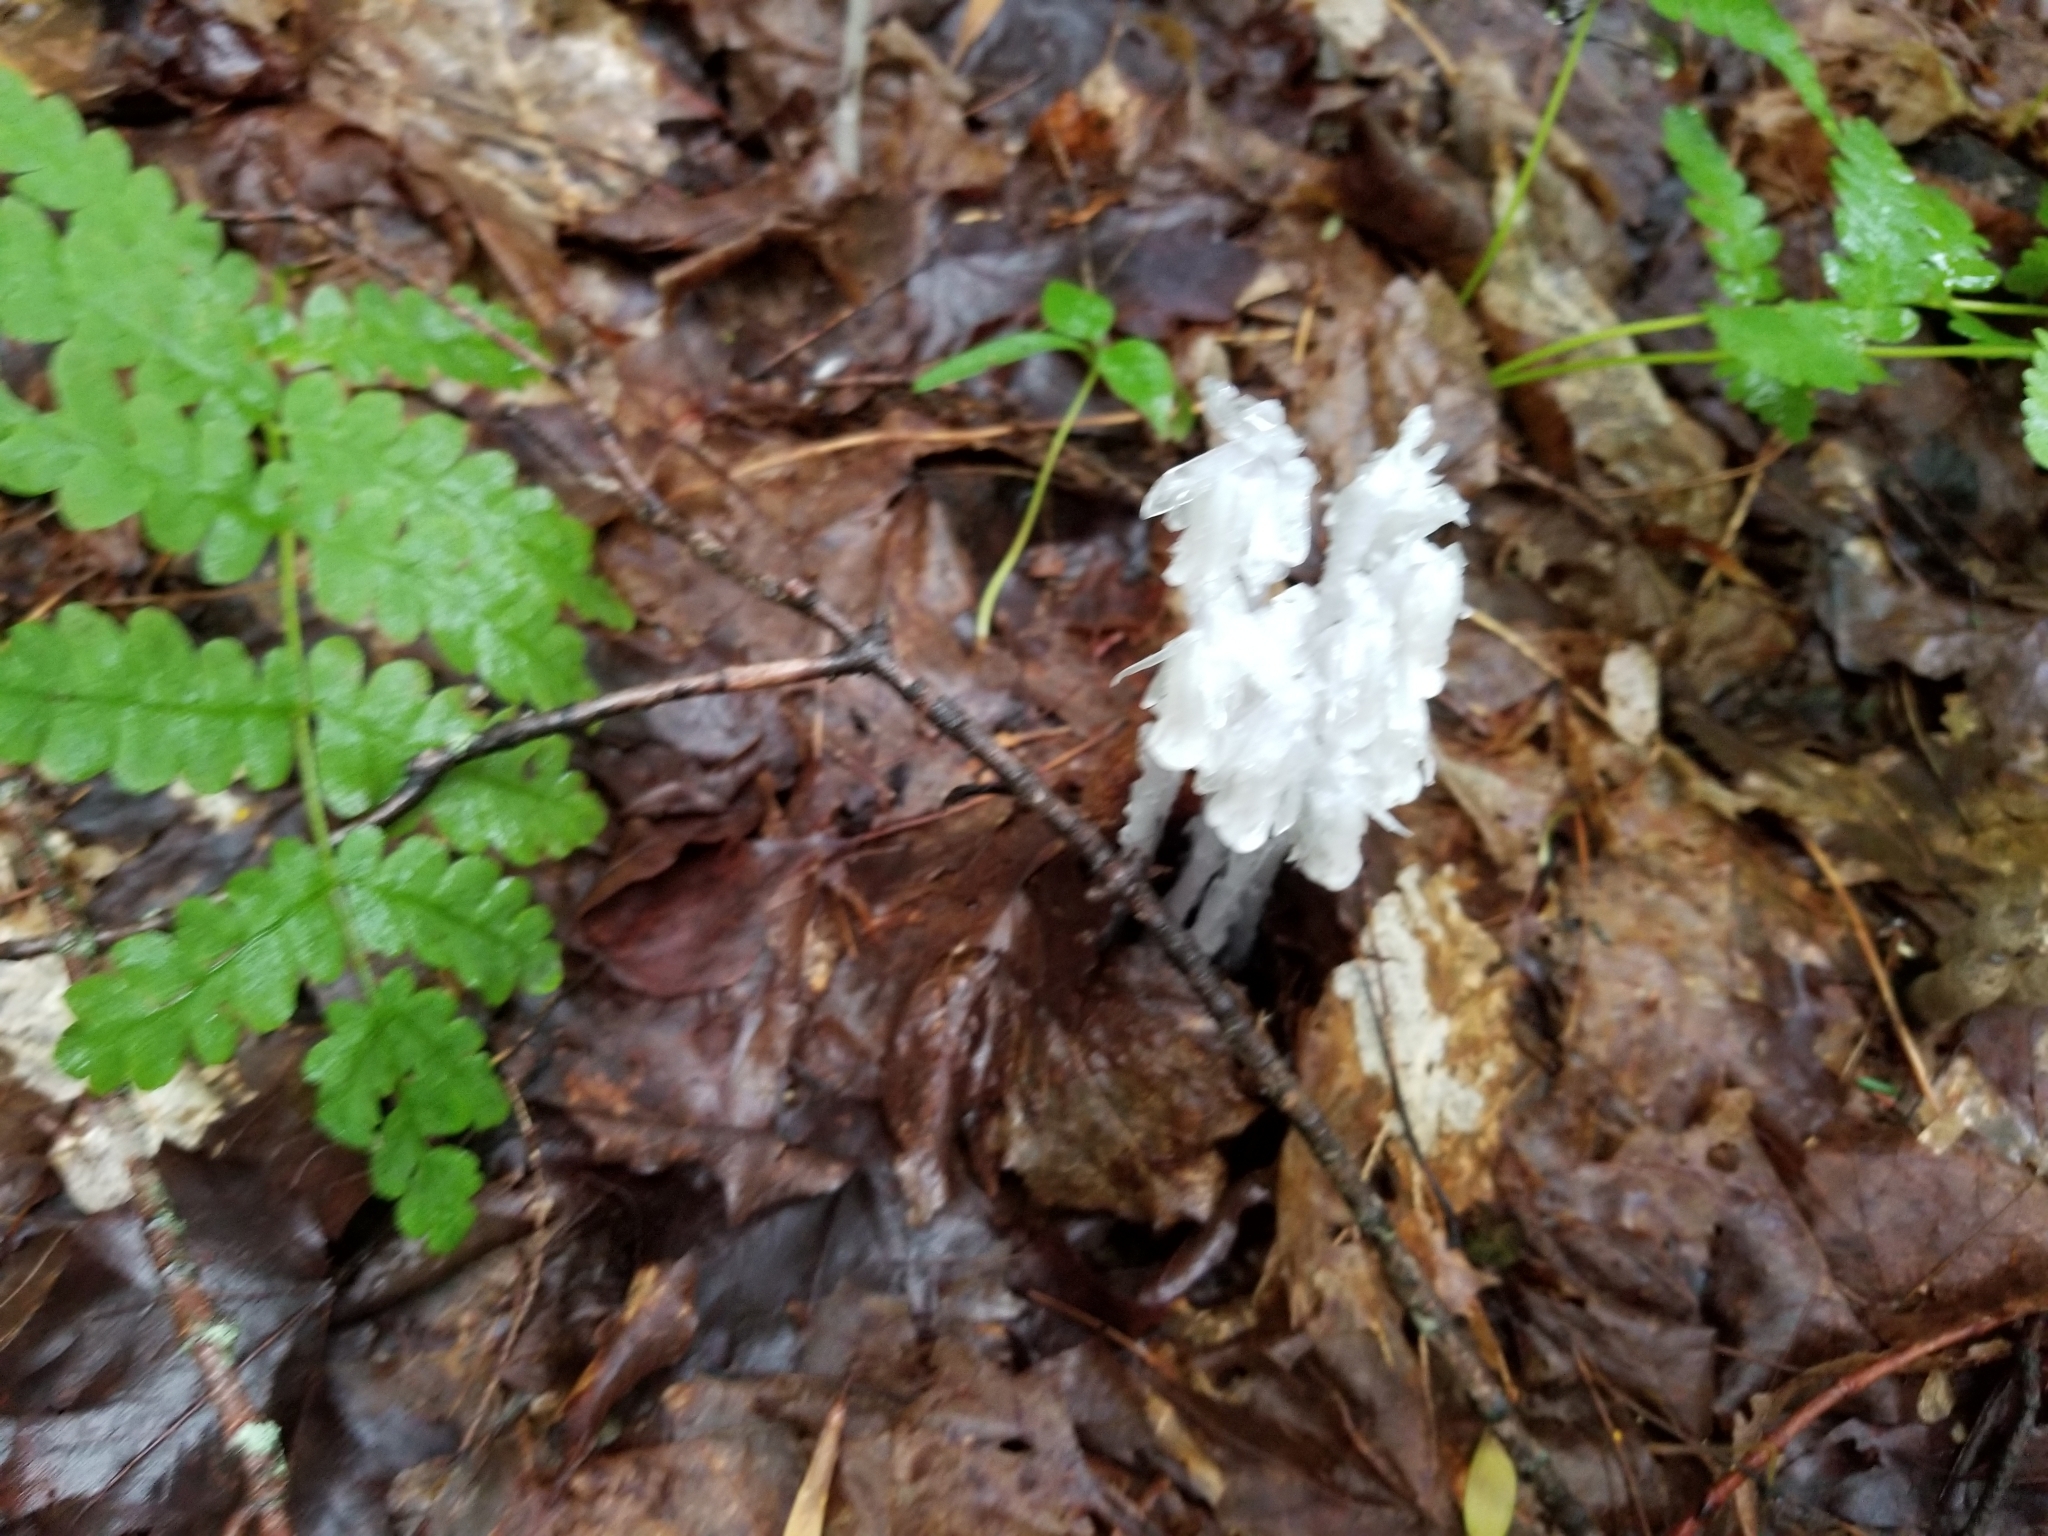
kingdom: Plantae
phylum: Tracheophyta
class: Magnoliopsida
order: Ericales
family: Ericaceae
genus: Monotropa
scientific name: Monotropa uniflora
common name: Convulsion root
